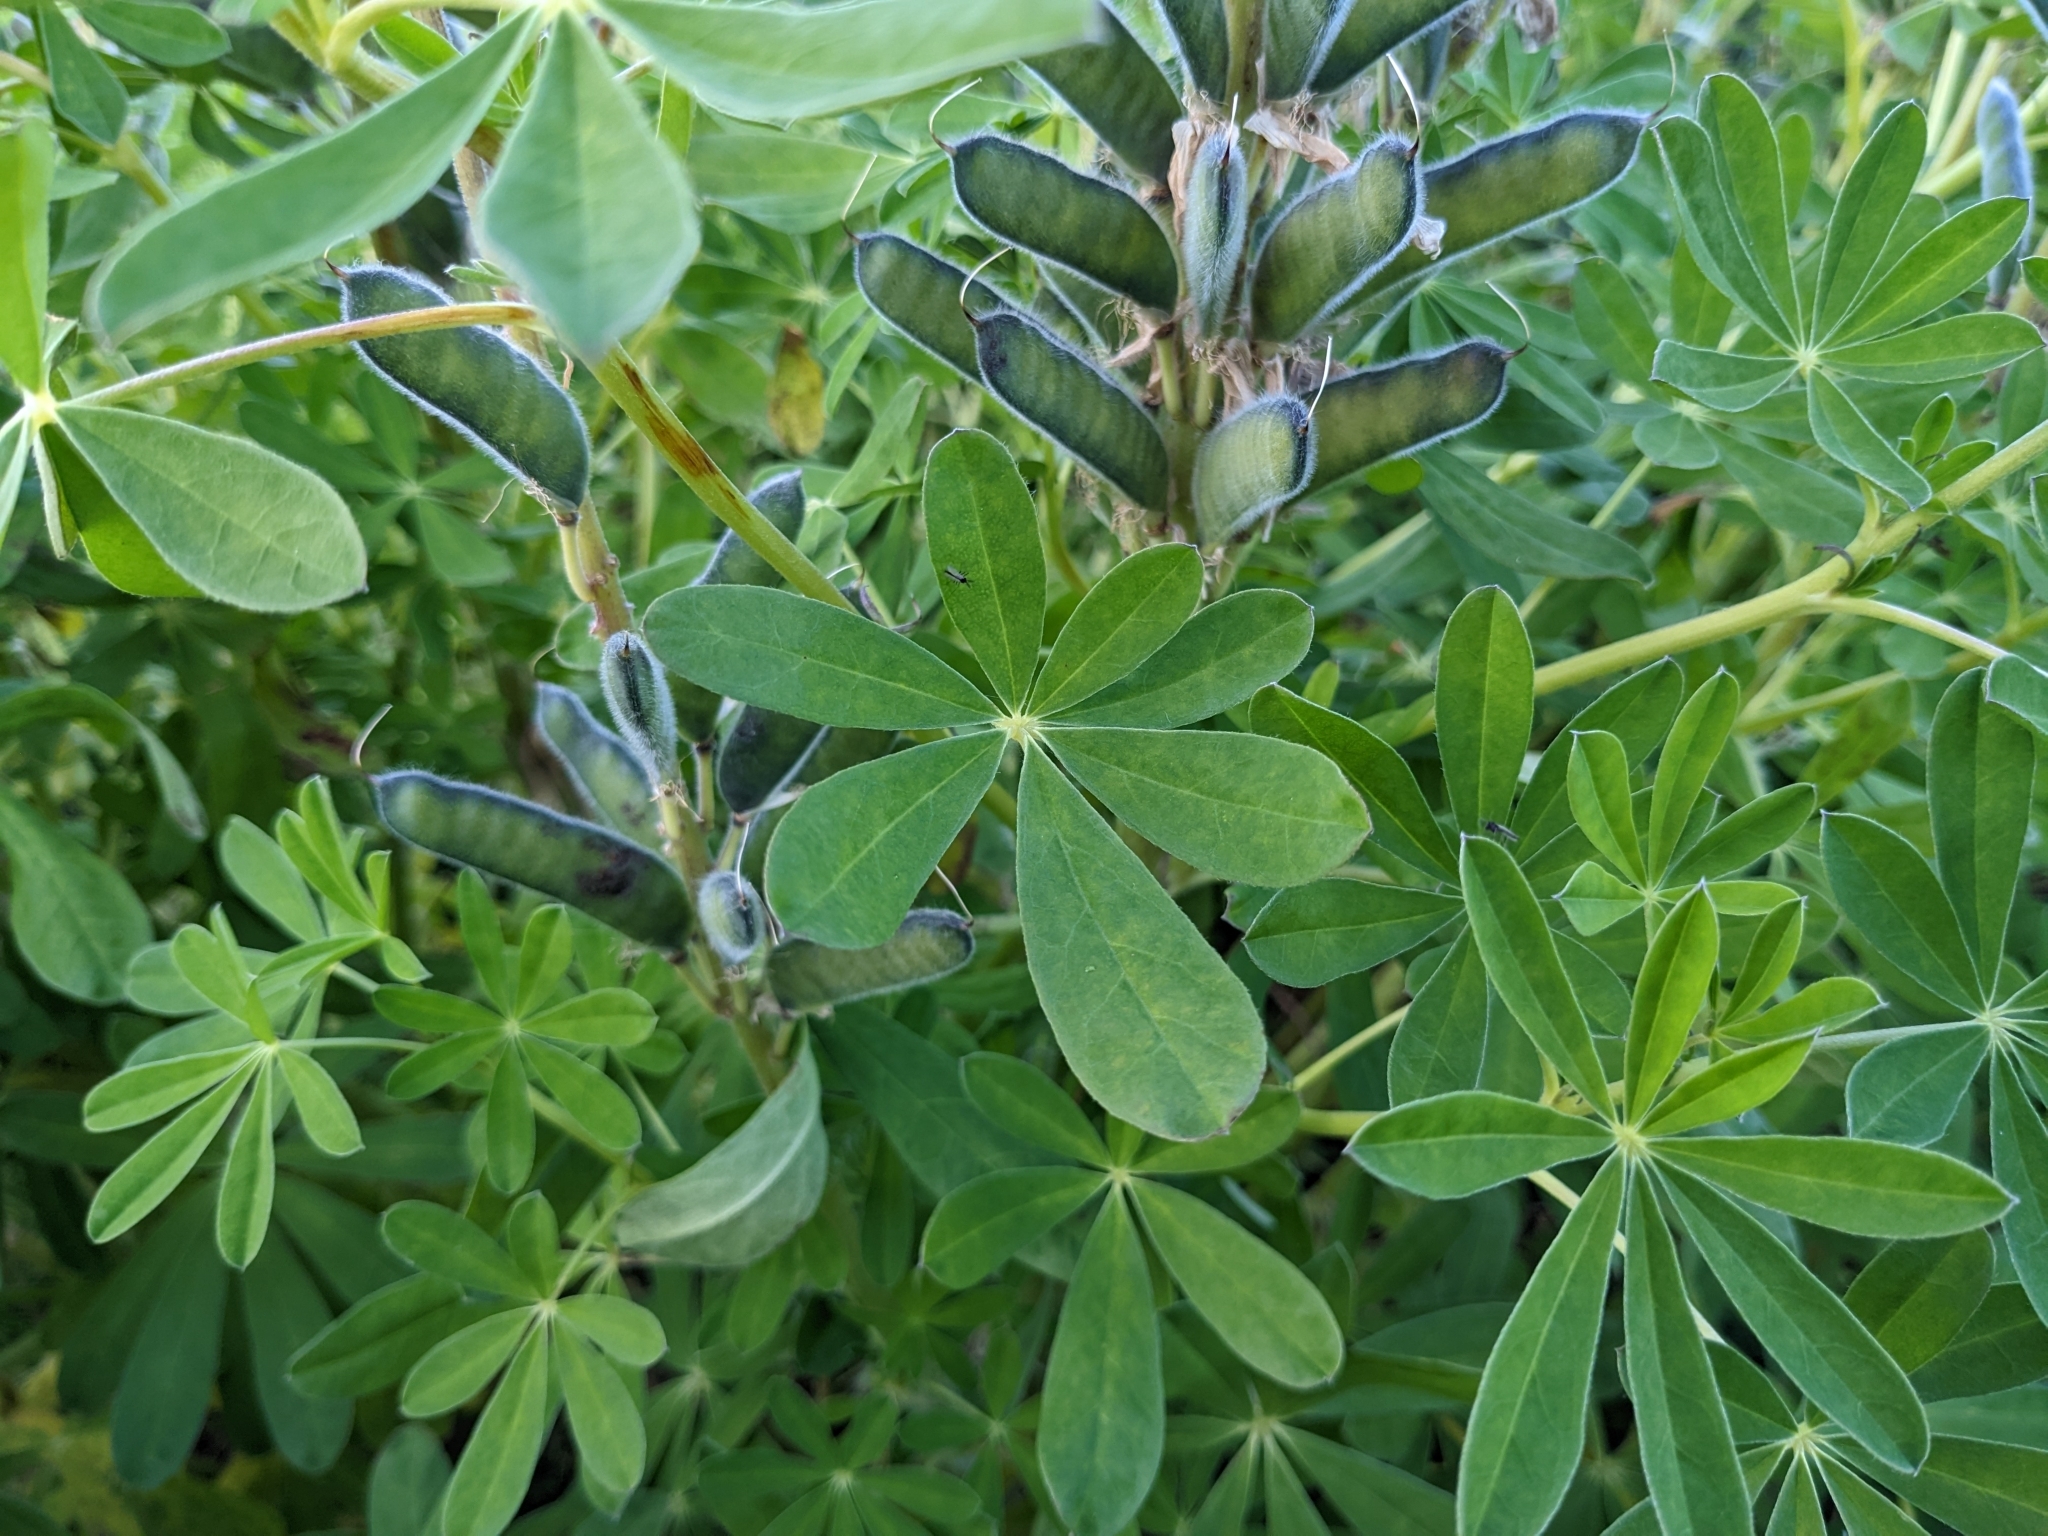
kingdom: Plantae
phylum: Tracheophyta
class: Magnoliopsida
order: Fabales
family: Fabaceae
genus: Lupinus
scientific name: Lupinus nootkatensis
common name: Nootka lupine
